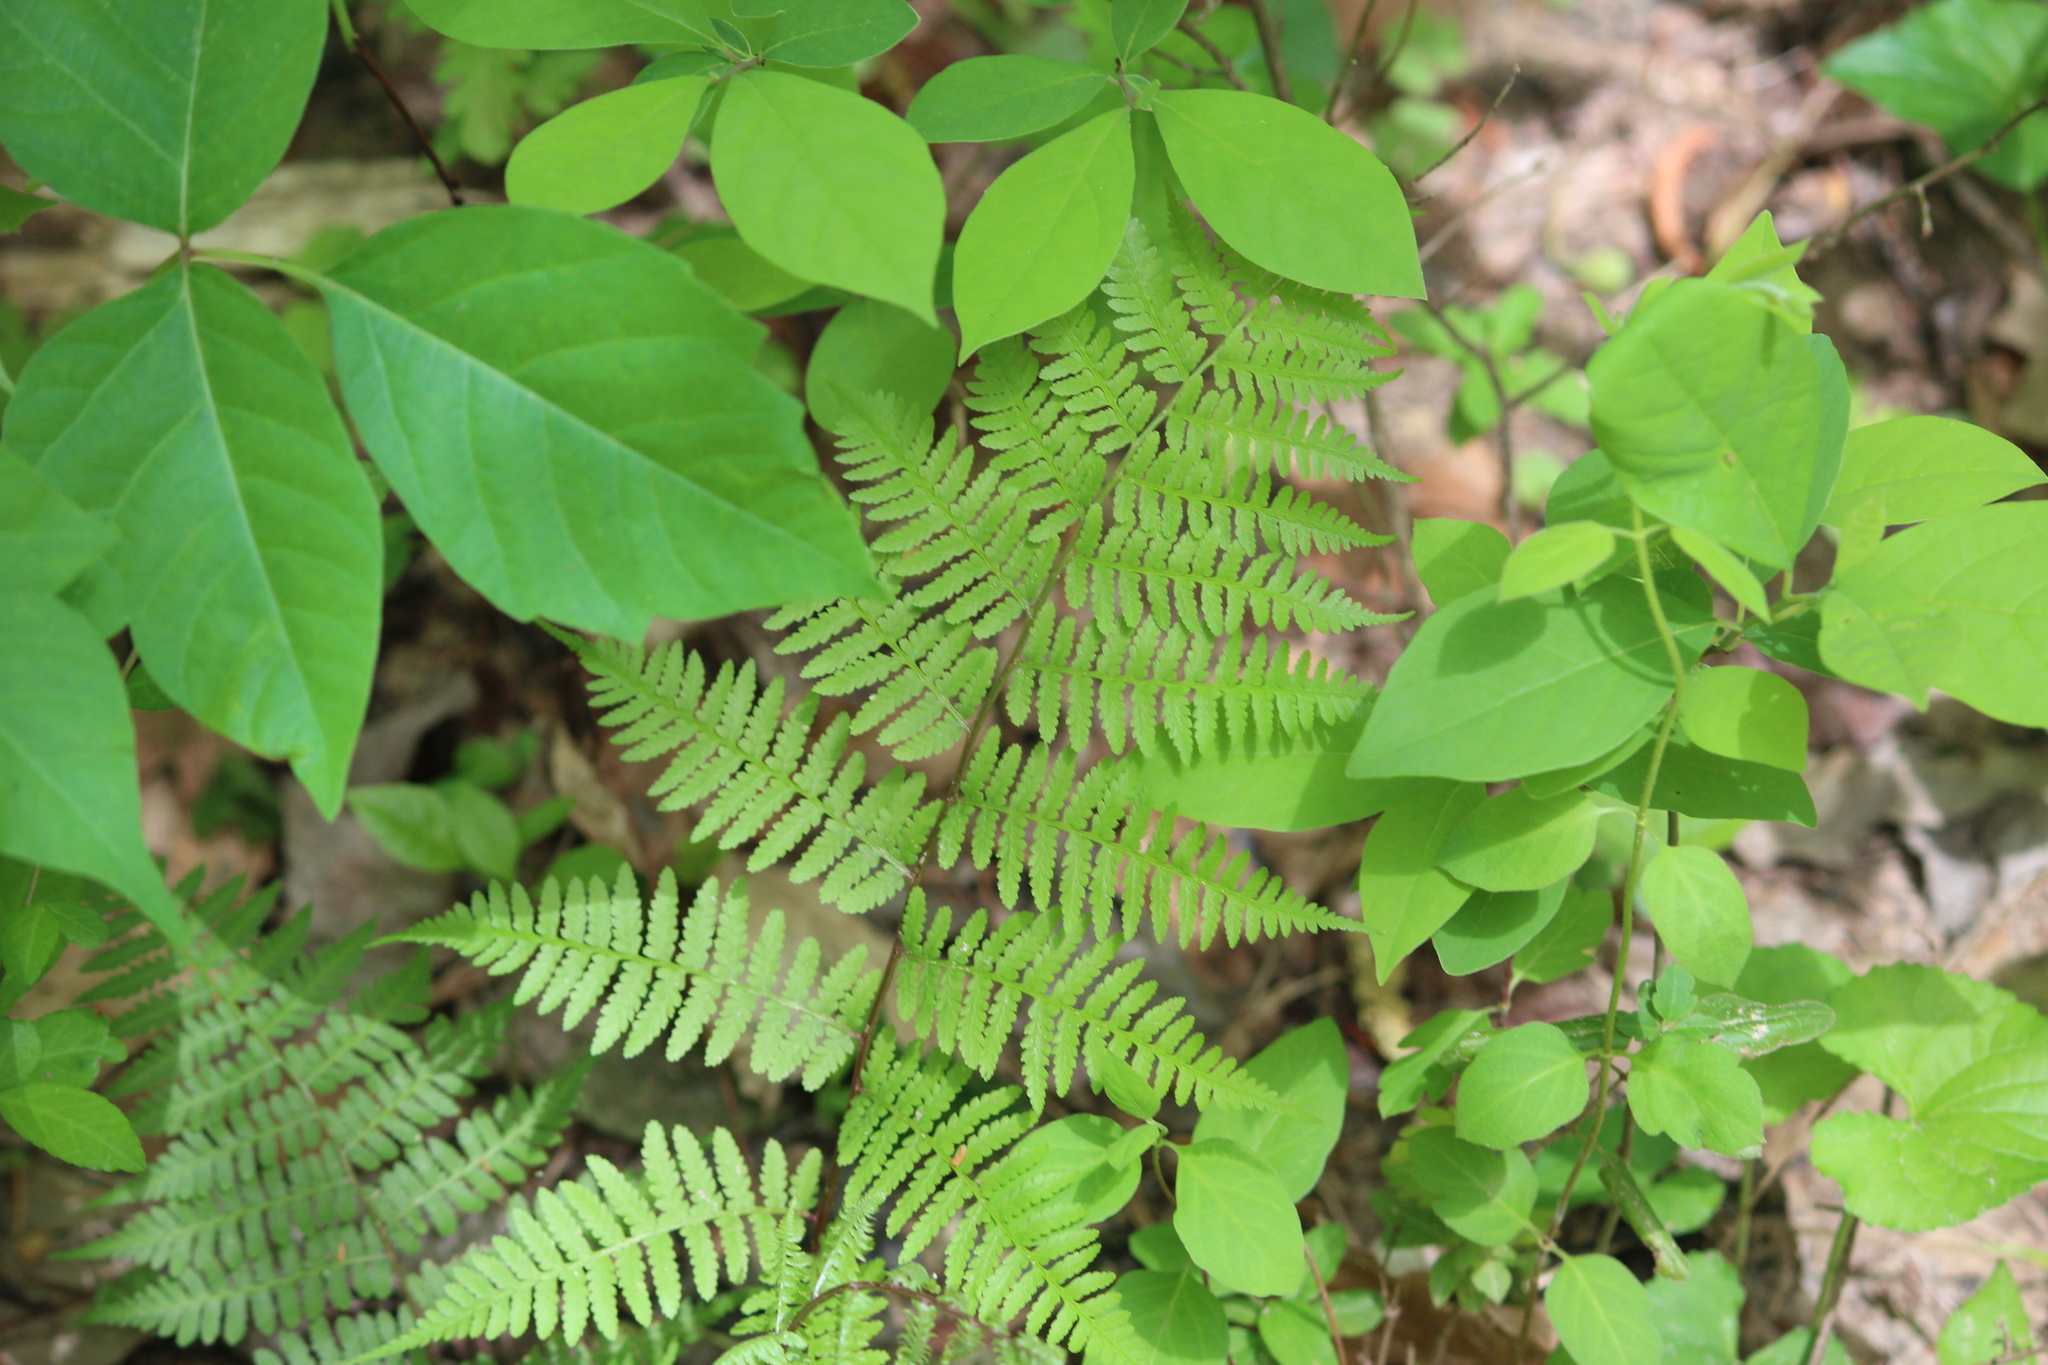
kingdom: Plantae
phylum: Tracheophyta
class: Polypodiopsida
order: Polypodiales
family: Athyriaceae
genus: Athyrium
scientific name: Athyrium asplenioides
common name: Southern lady fern
